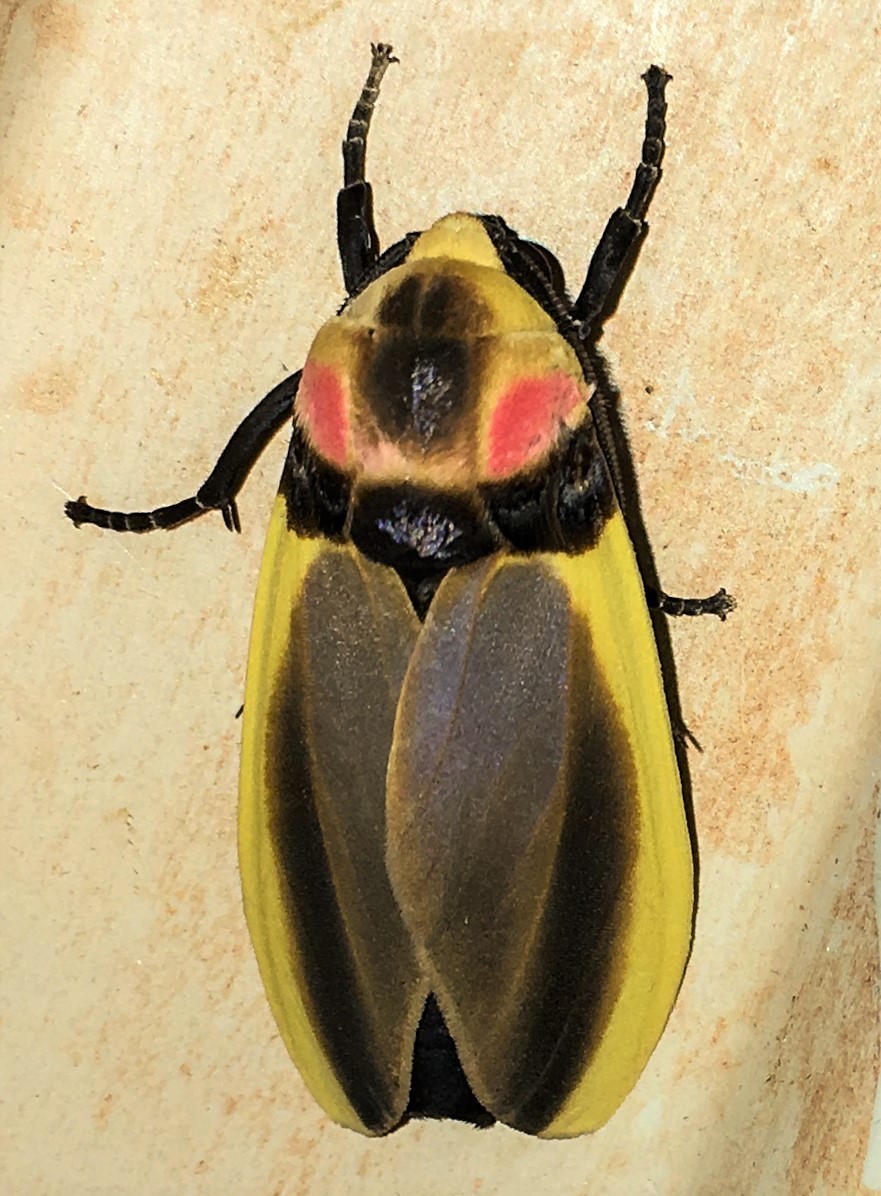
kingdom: Animalia
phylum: Arthropoda
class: Insecta
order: Lepidoptera
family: Erebidae
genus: Cratoplastis
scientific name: Cratoplastis diluta
